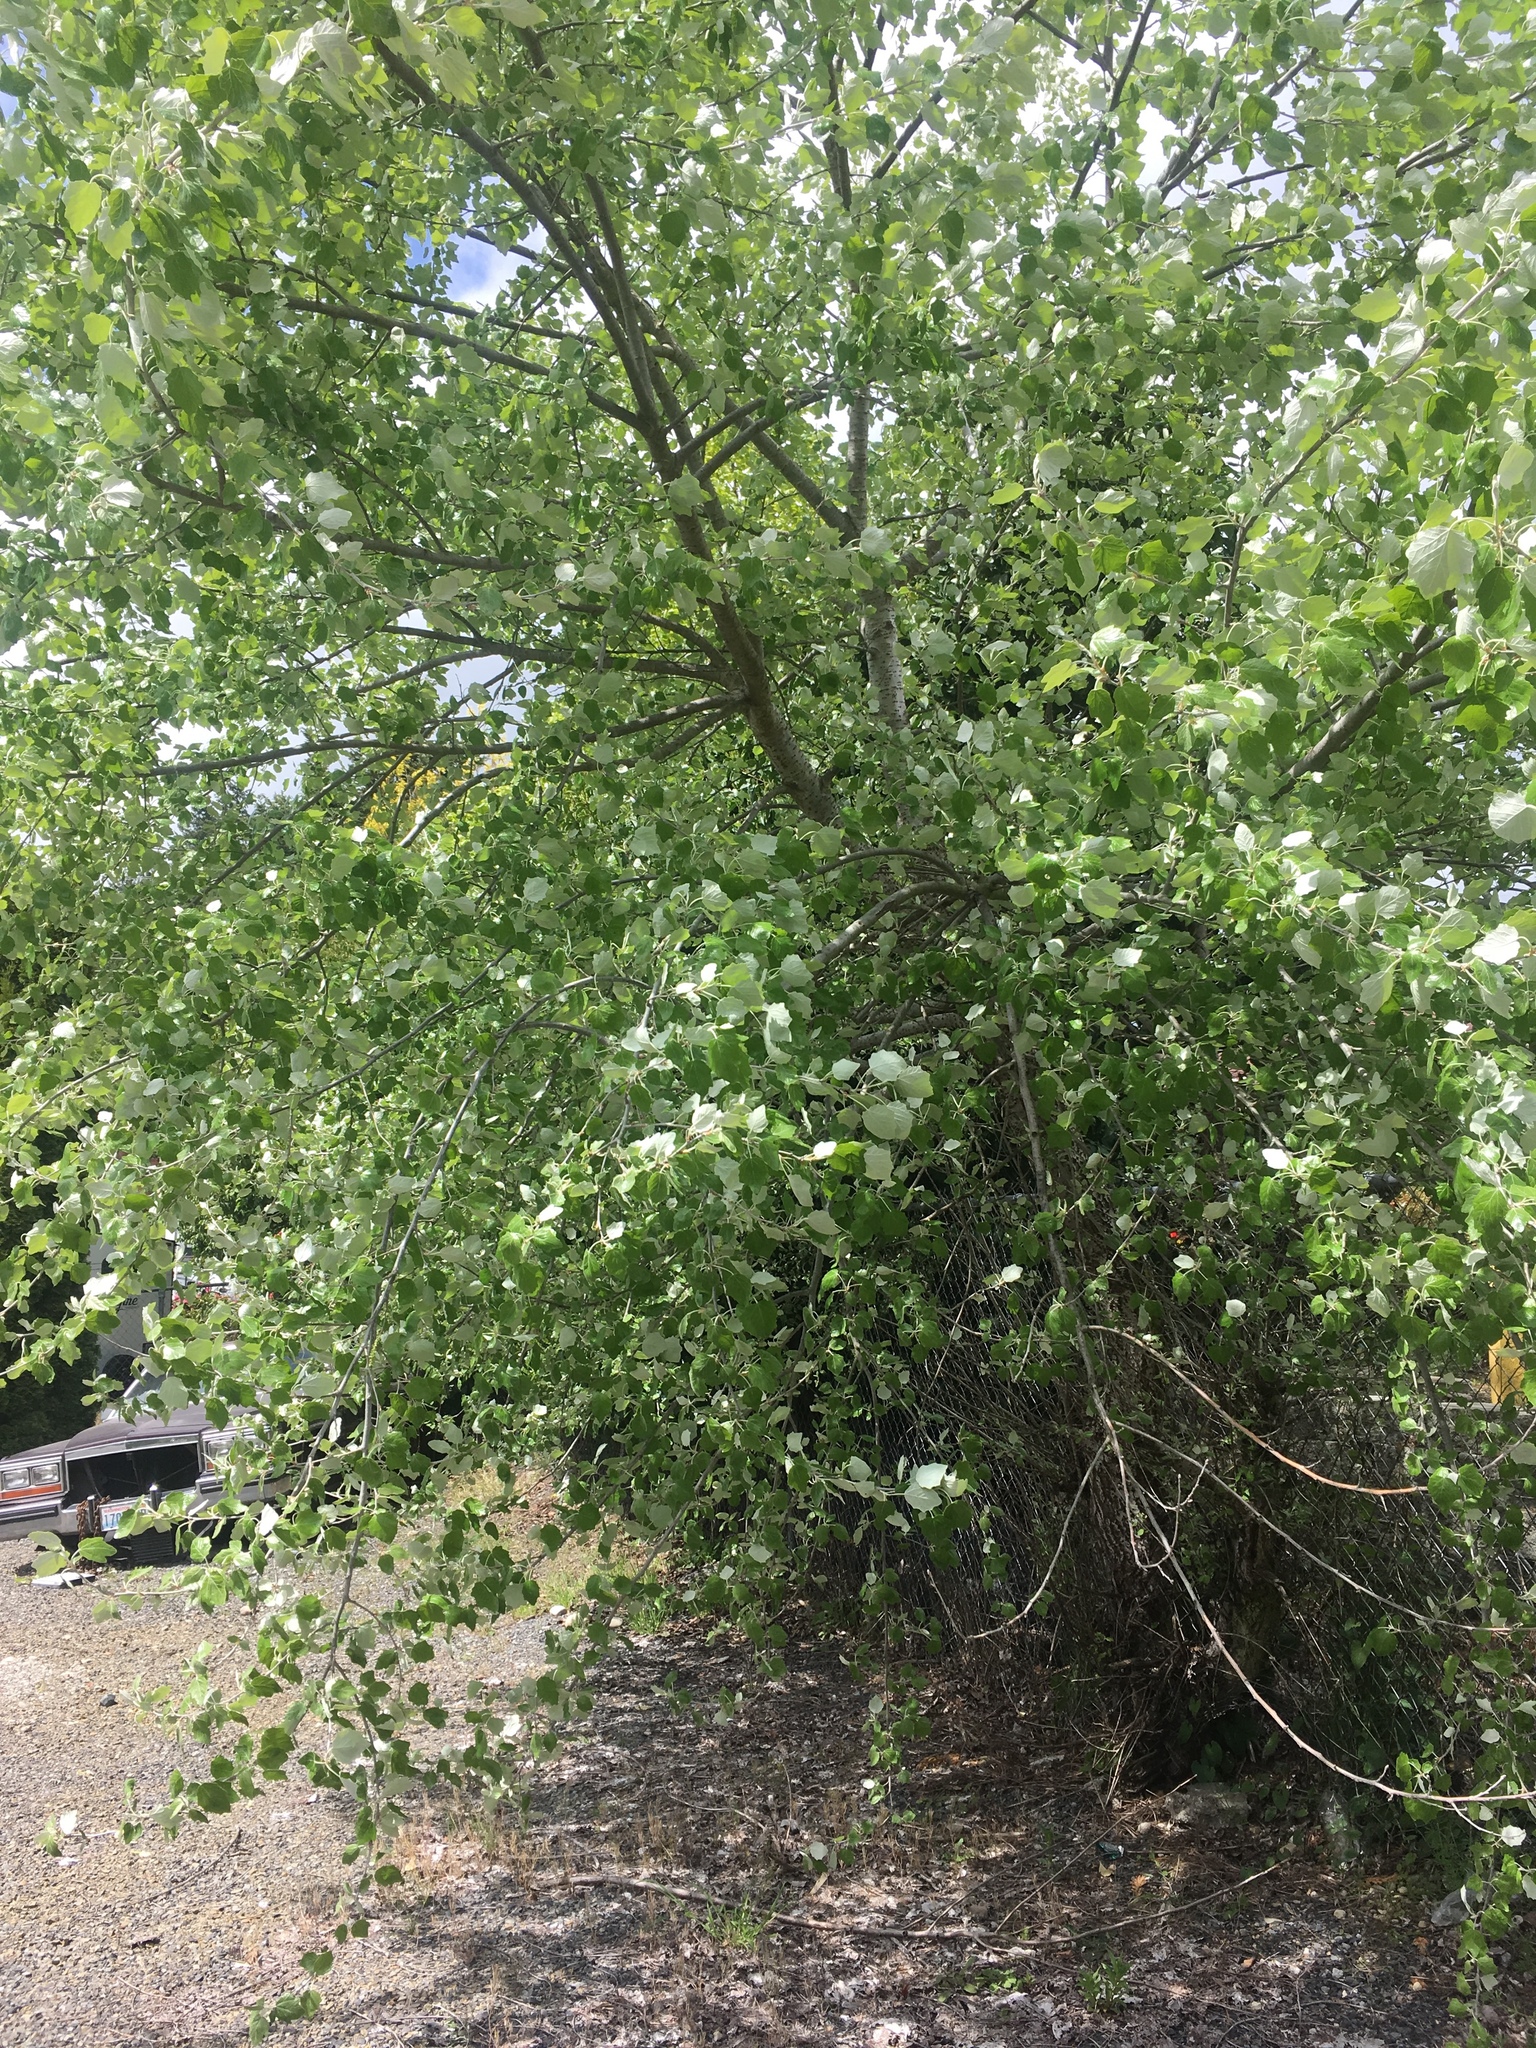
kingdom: Plantae
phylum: Tracheophyta
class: Magnoliopsida
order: Malpighiales
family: Salicaceae
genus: Populus
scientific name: Populus alba
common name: White poplar
